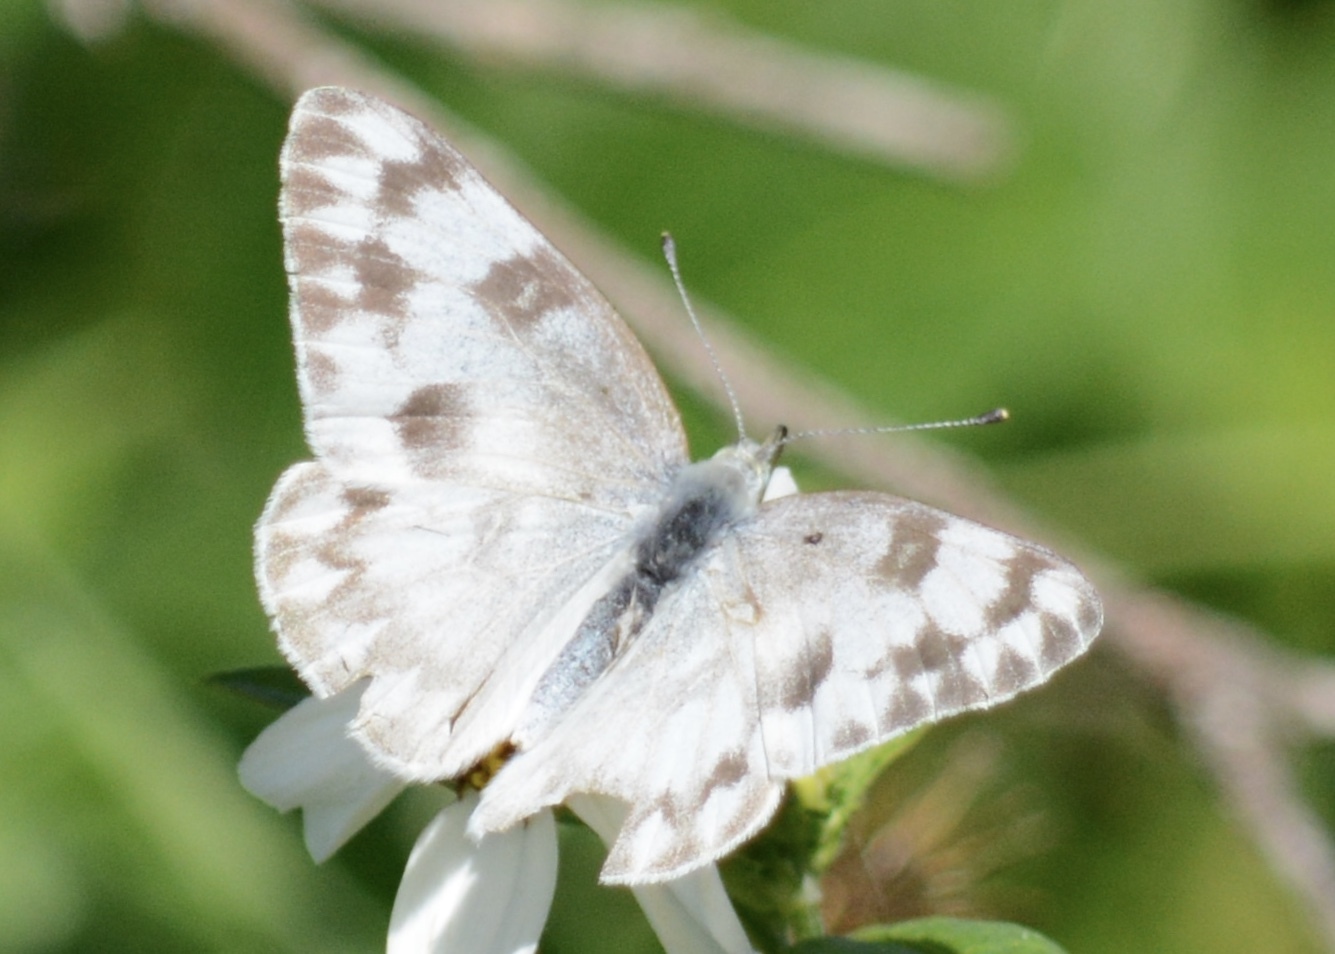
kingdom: Animalia
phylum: Arthropoda
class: Insecta
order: Lepidoptera
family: Pieridae
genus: Pontia
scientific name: Pontia protodice
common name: Checkered white
